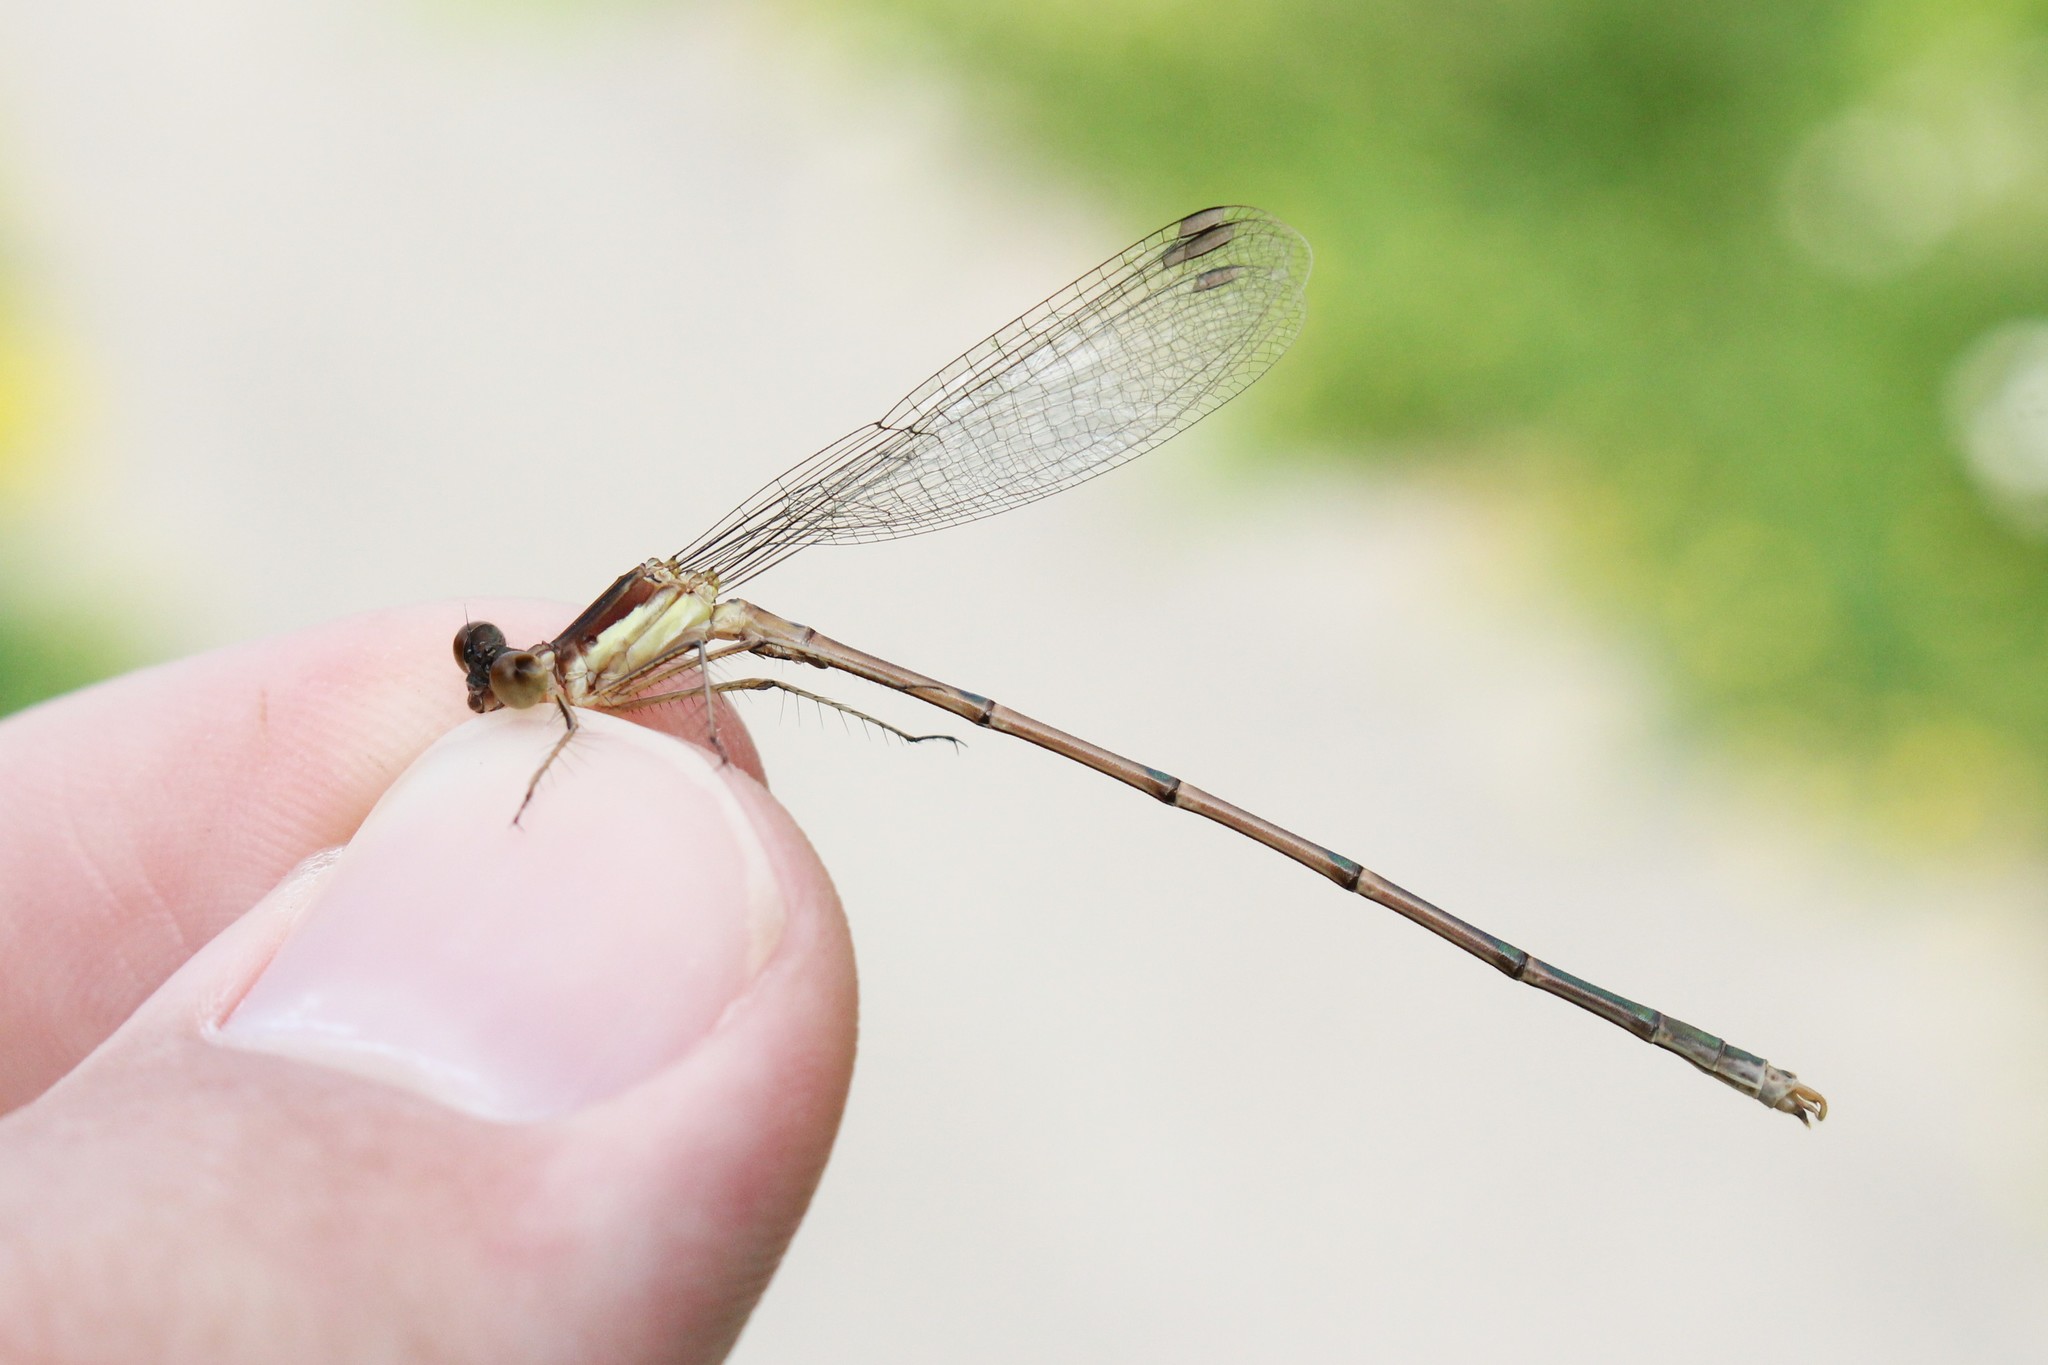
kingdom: Animalia
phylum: Arthropoda
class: Insecta
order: Odonata
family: Lestidae
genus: Lestes
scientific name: Lestes rectangularis
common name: Slender spreadwing
